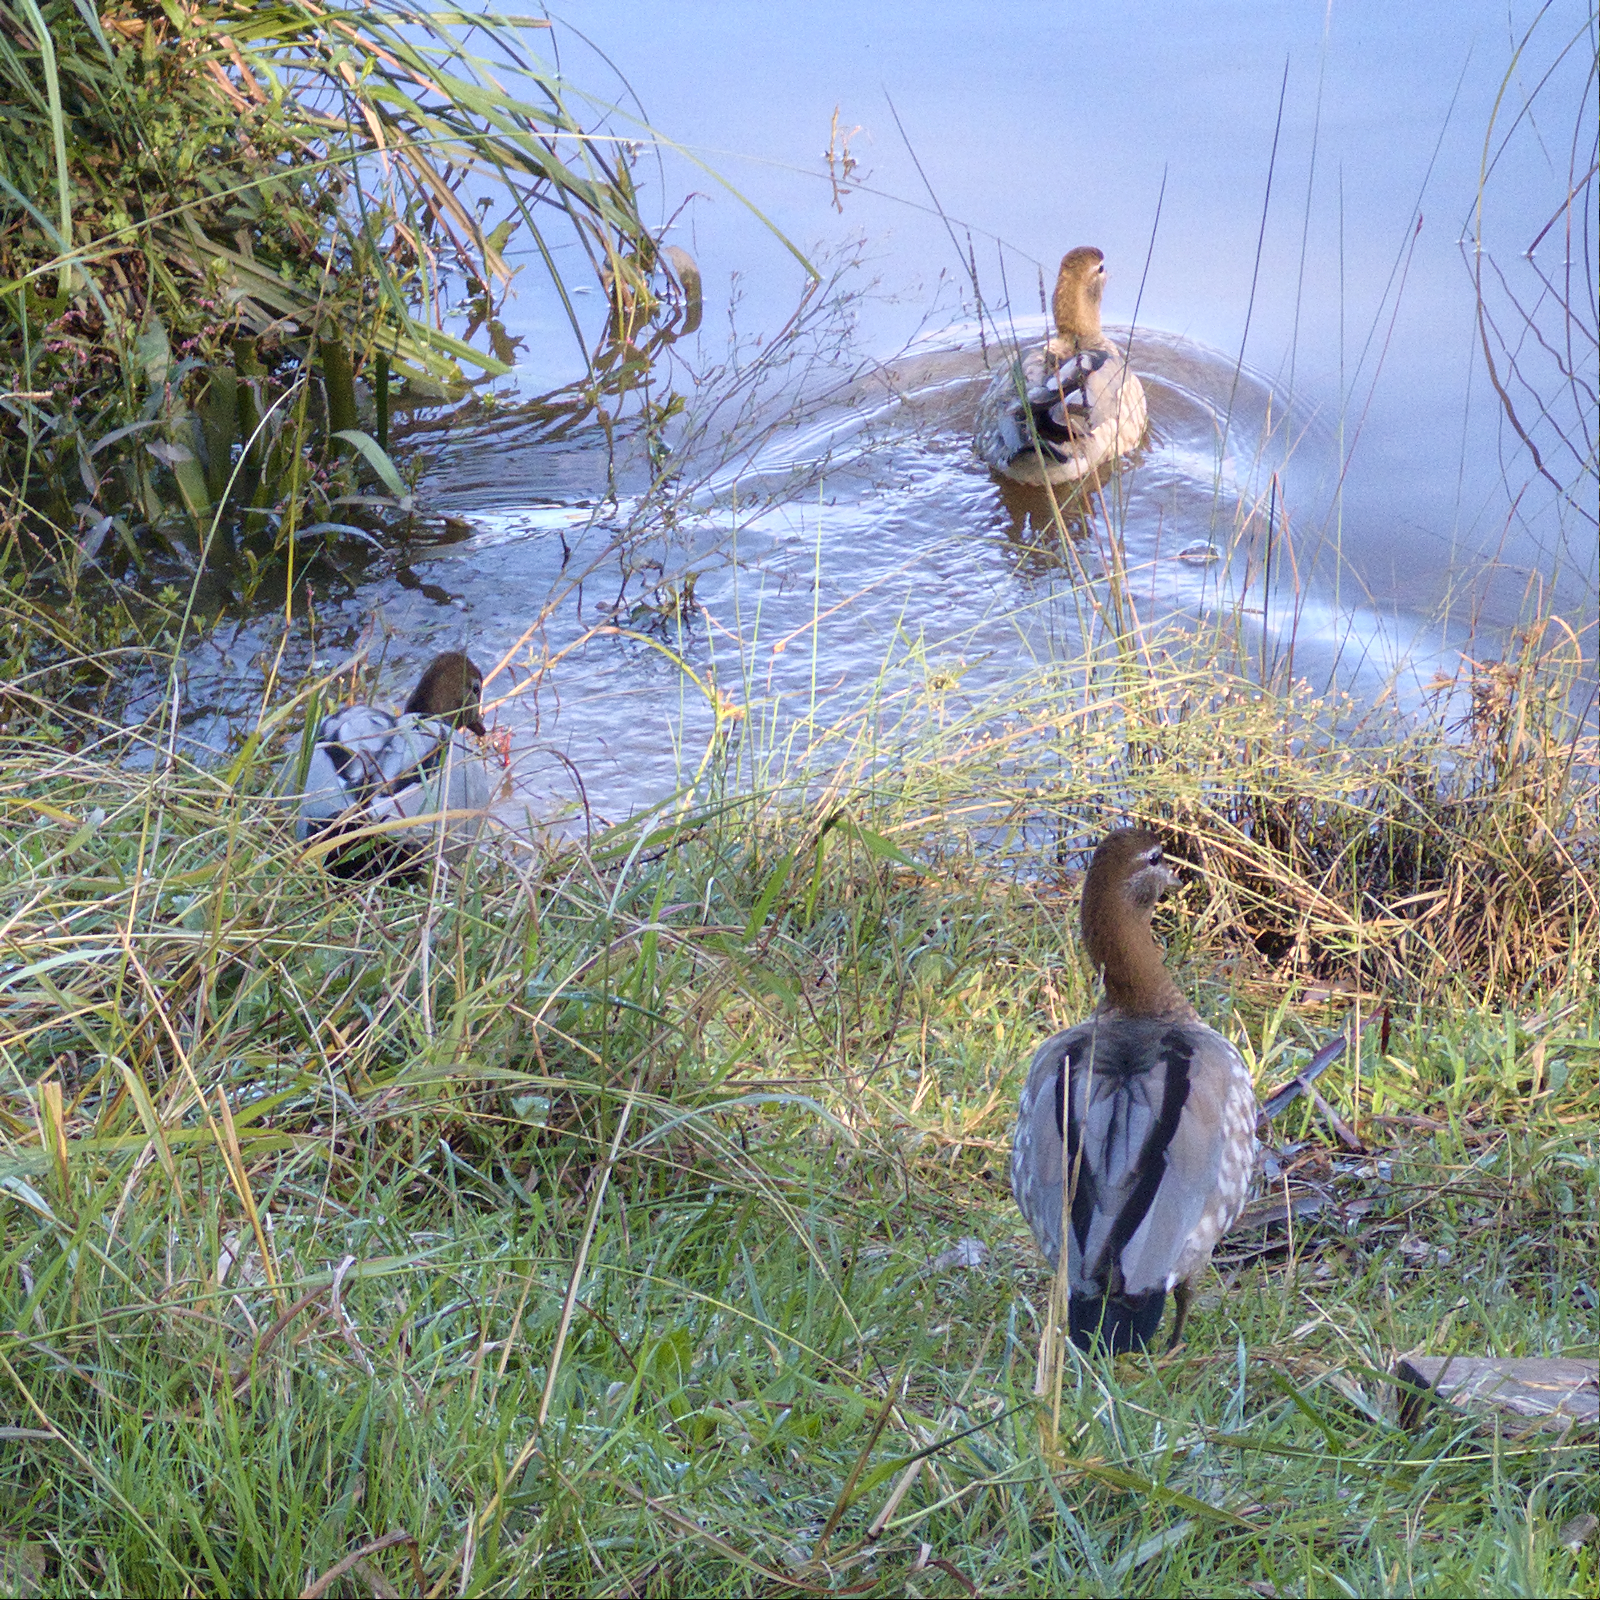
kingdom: Animalia
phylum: Chordata
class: Aves
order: Anseriformes
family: Anatidae
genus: Chenonetta
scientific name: Chenonetta jubata
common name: Maned duck
